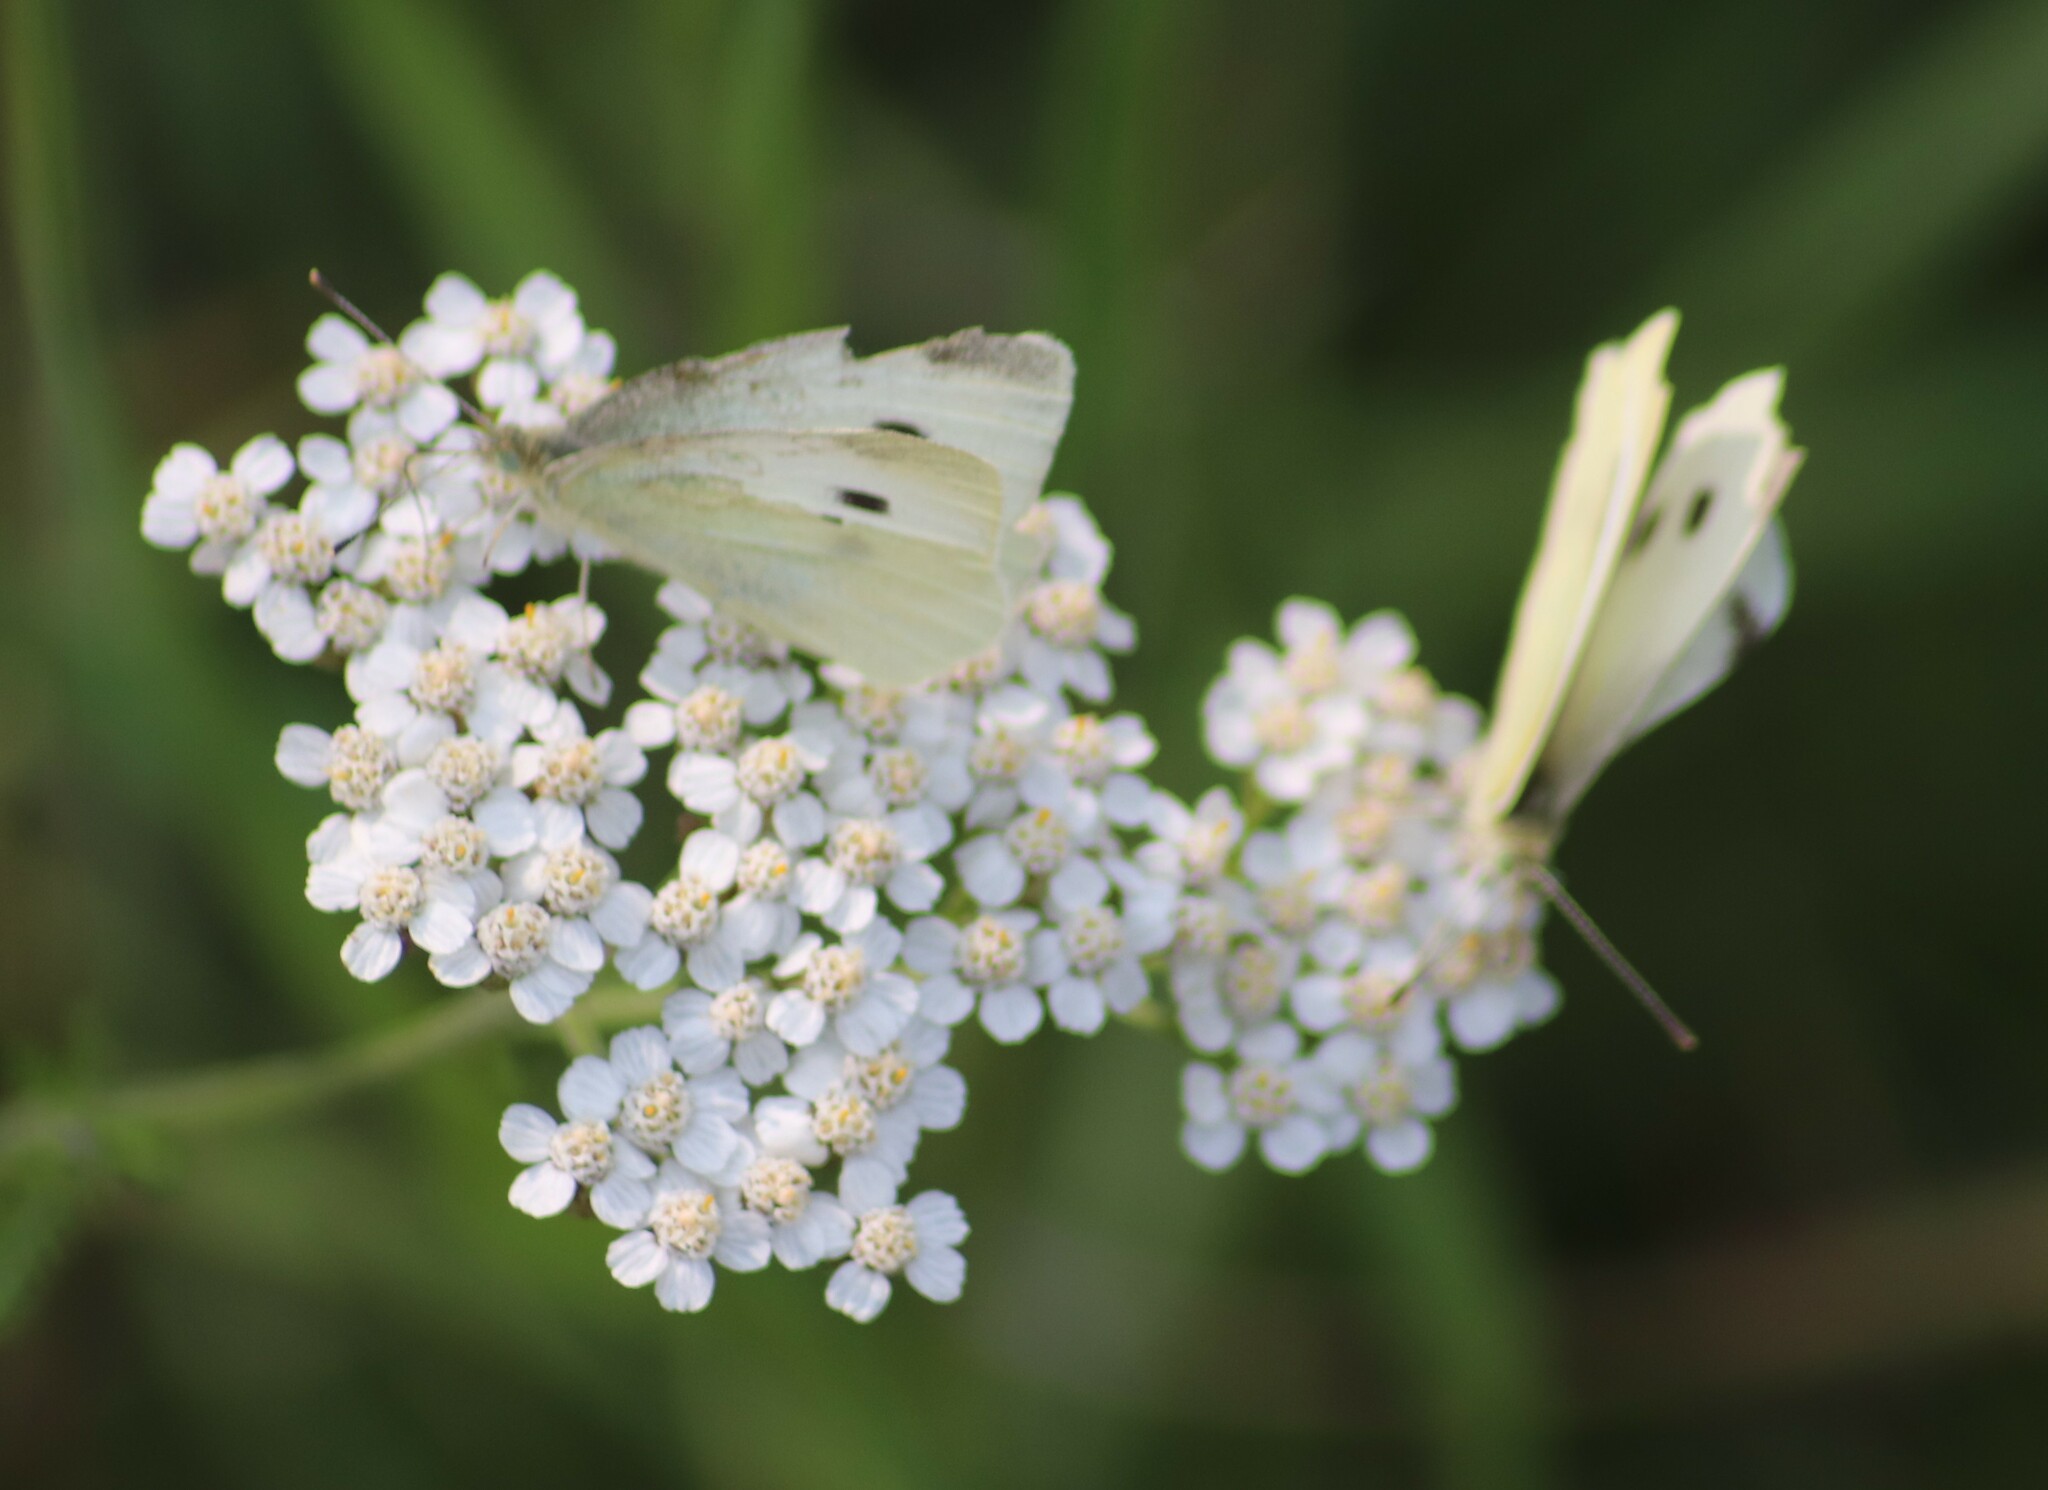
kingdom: Plantae
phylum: Tracheophyta
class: Magnoliopsida
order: Asterales
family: Asteraceae
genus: Achillea
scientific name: Achillea millefolium
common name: Yarrow
